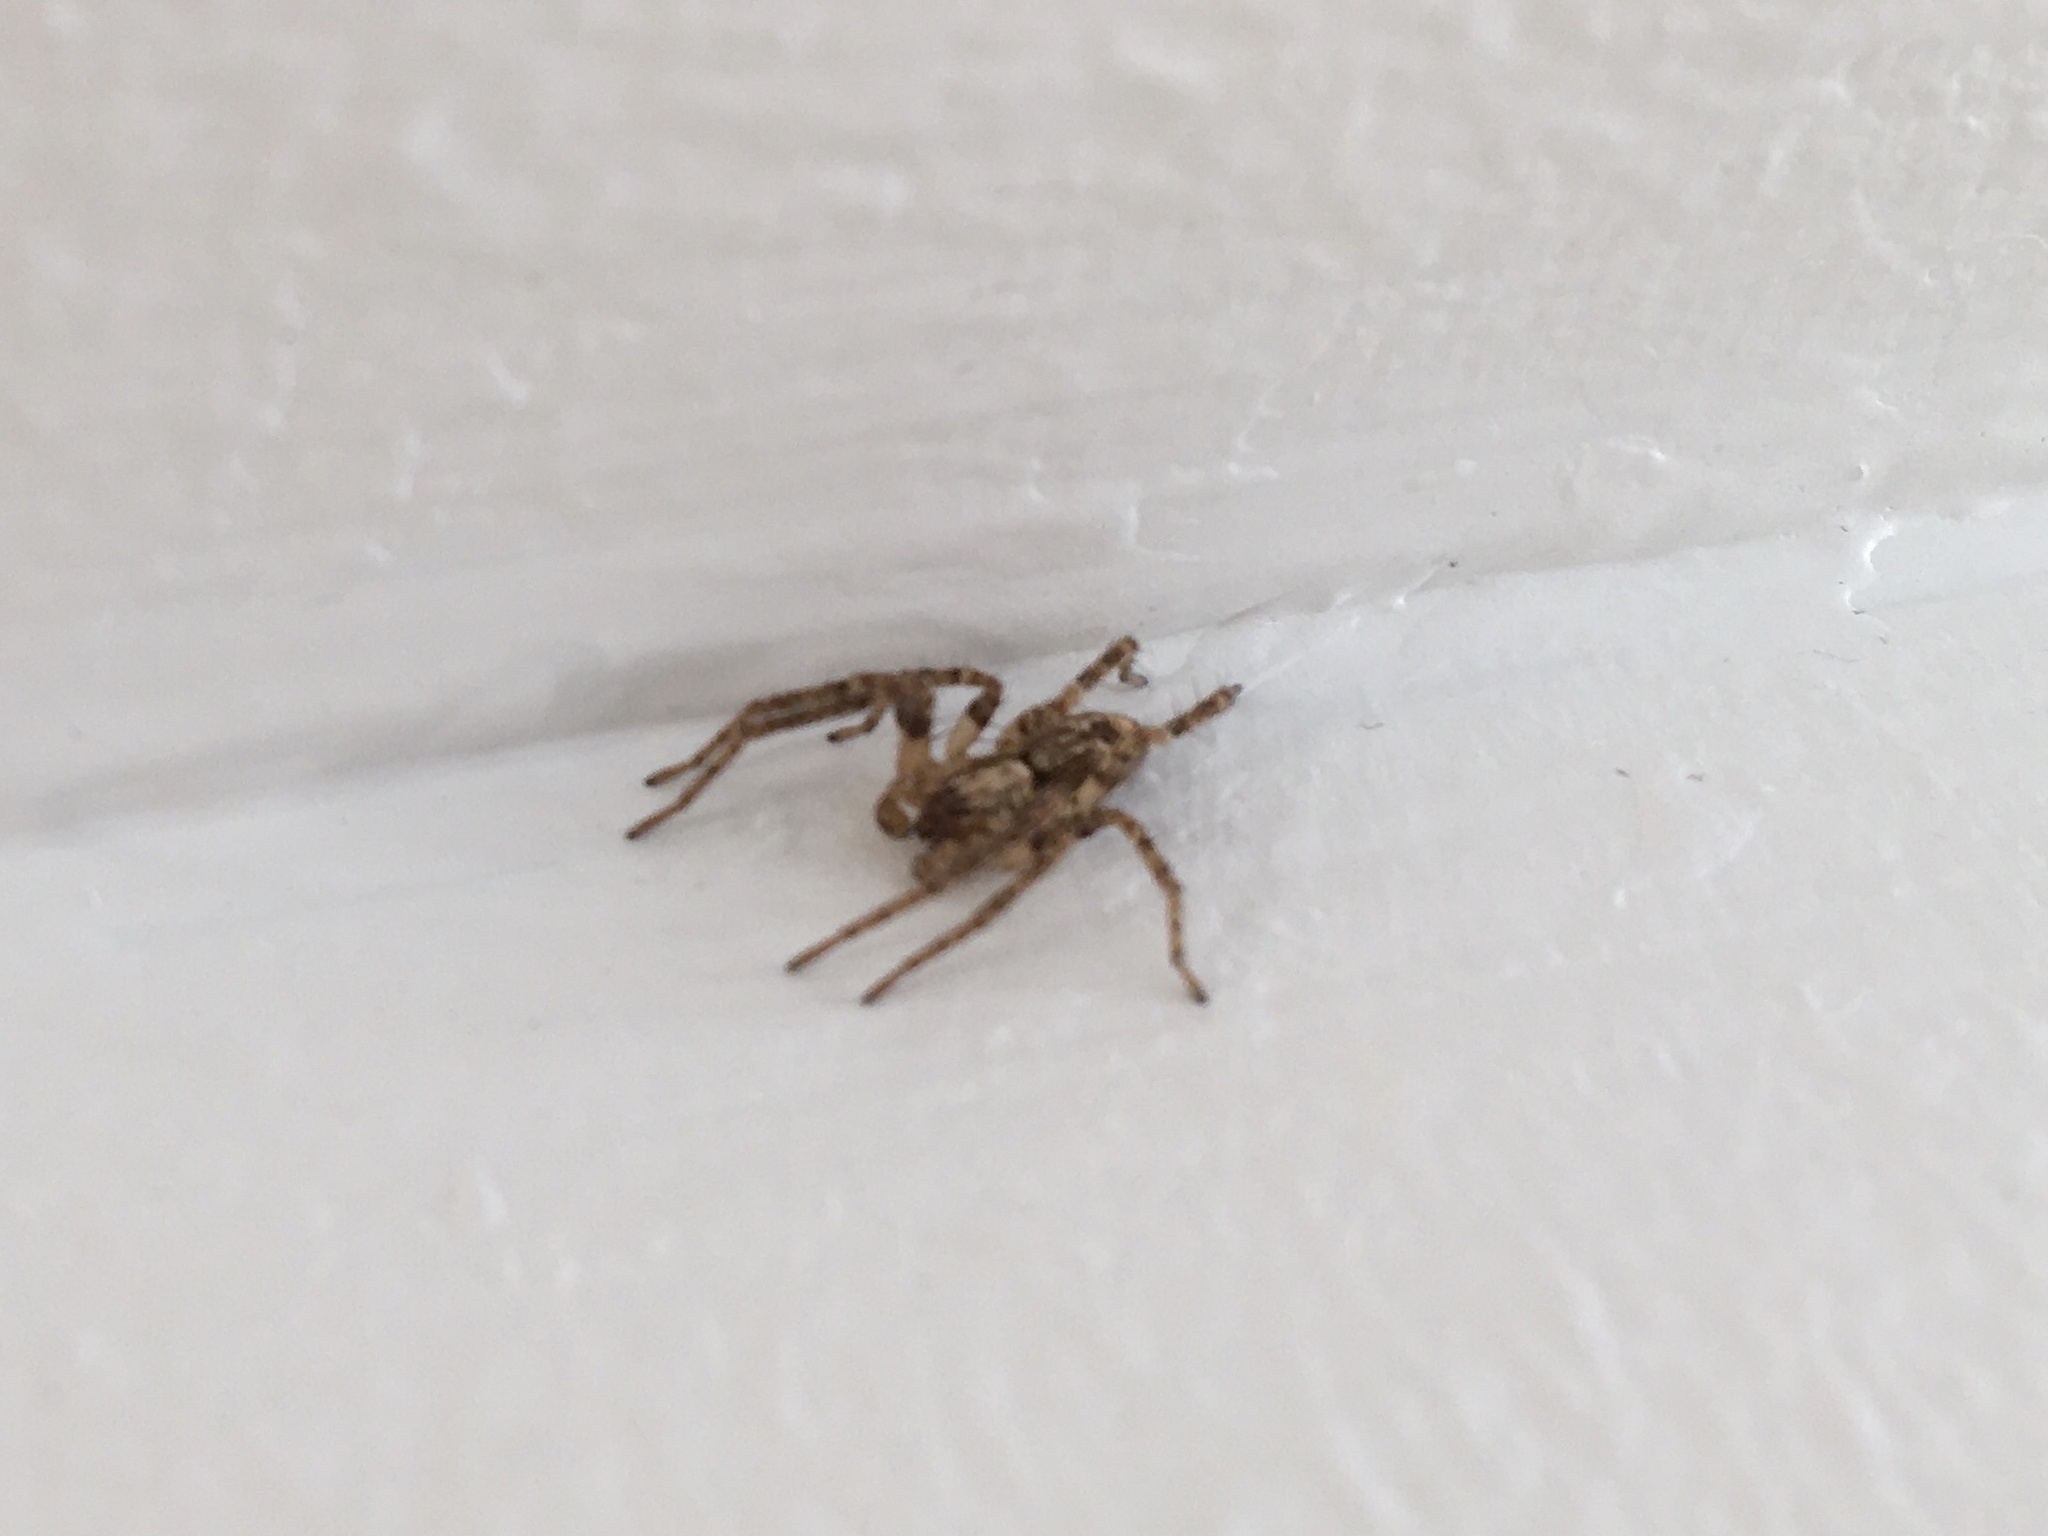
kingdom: Animalia
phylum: Arthropoda
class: Arachnida
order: Araneae
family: Anyphaenidae
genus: Anyphaena
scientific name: Anyphaena accentuata
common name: Buzzing spider
